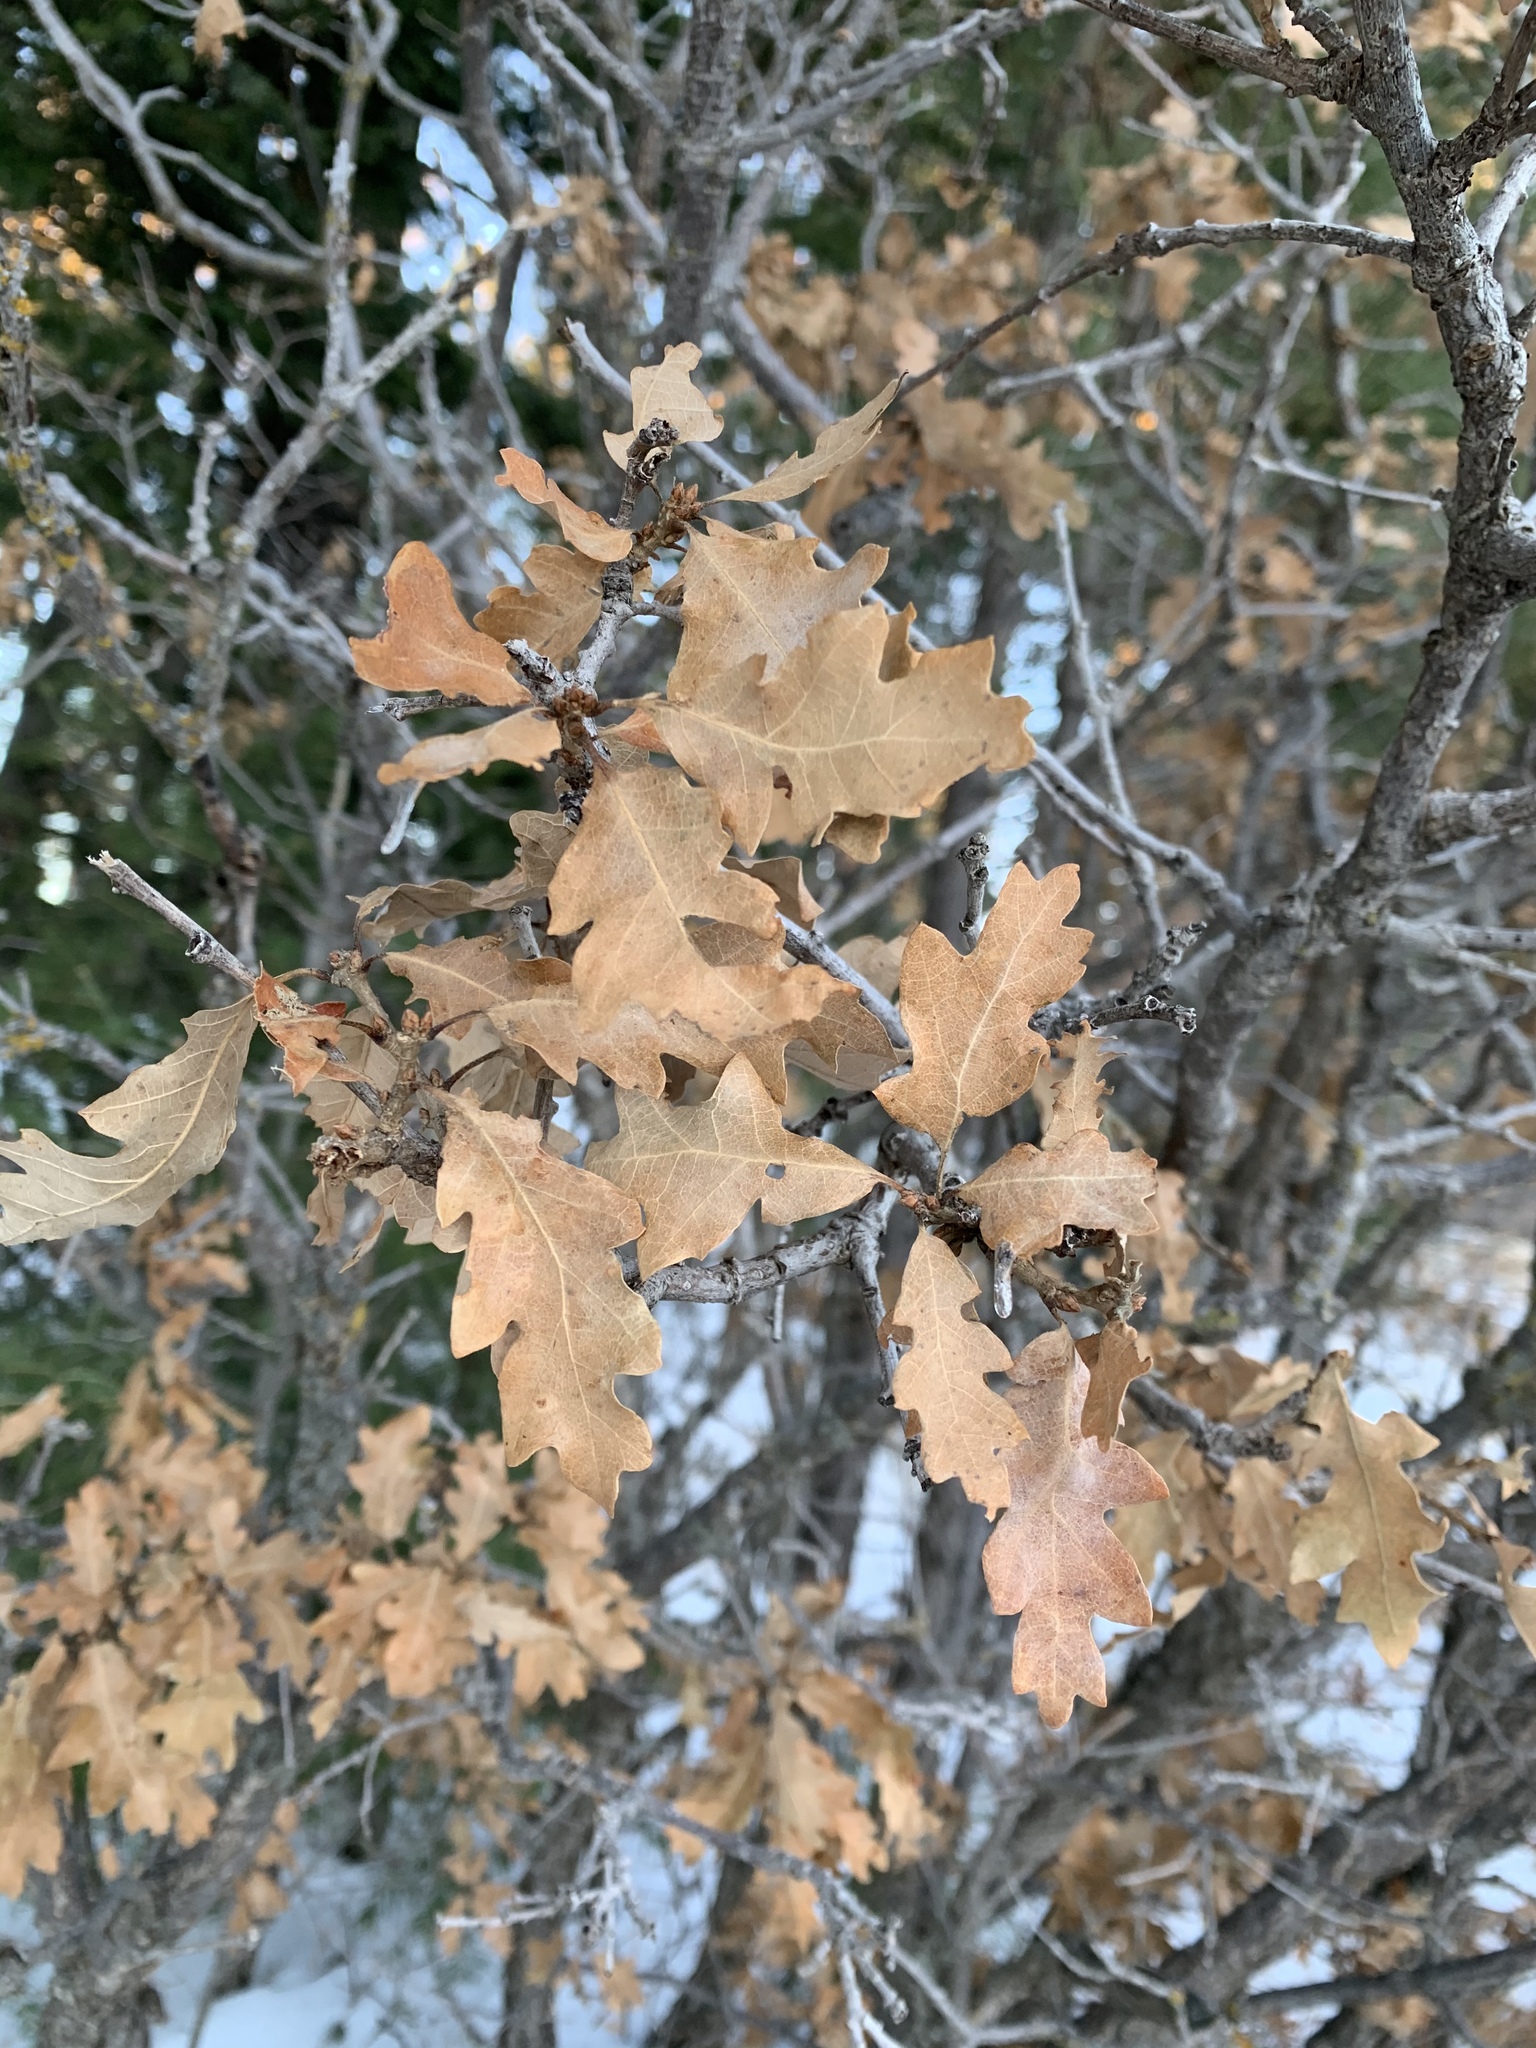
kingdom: Plantae
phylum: Tracheophyta
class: Magnoliopsida
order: Fagales
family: Fagaceae
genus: Quercus
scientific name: Quercus gambelii
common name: Gambel oak
